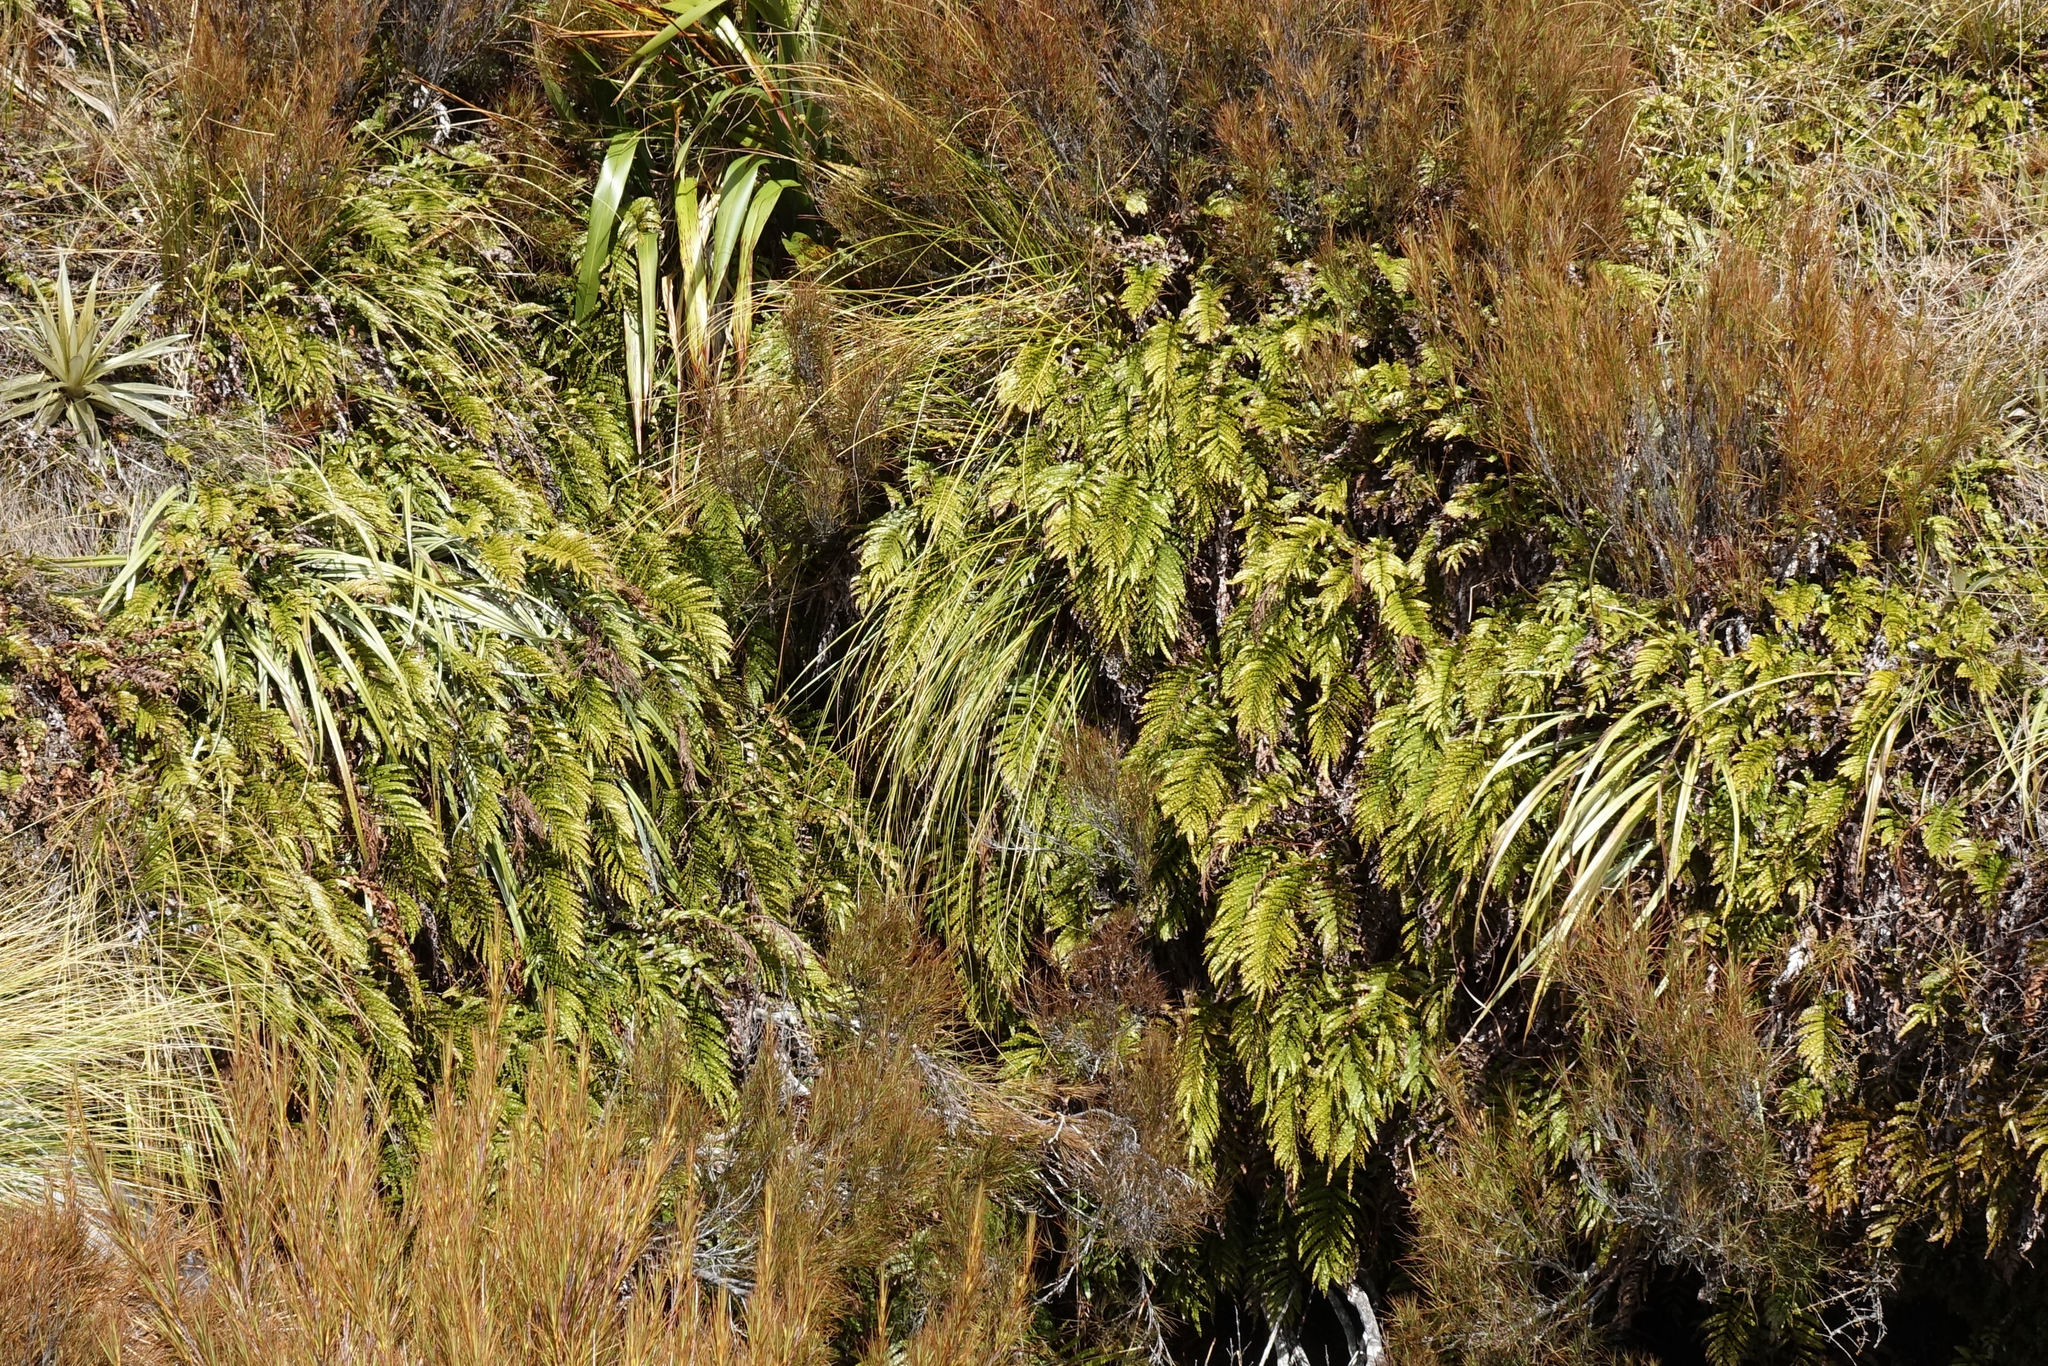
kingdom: Plantae
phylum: Tracheophyta
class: Polypodiopsida
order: Polypodiales
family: Blechnaceae
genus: Parablechnum
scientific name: Parablechnum montanum
